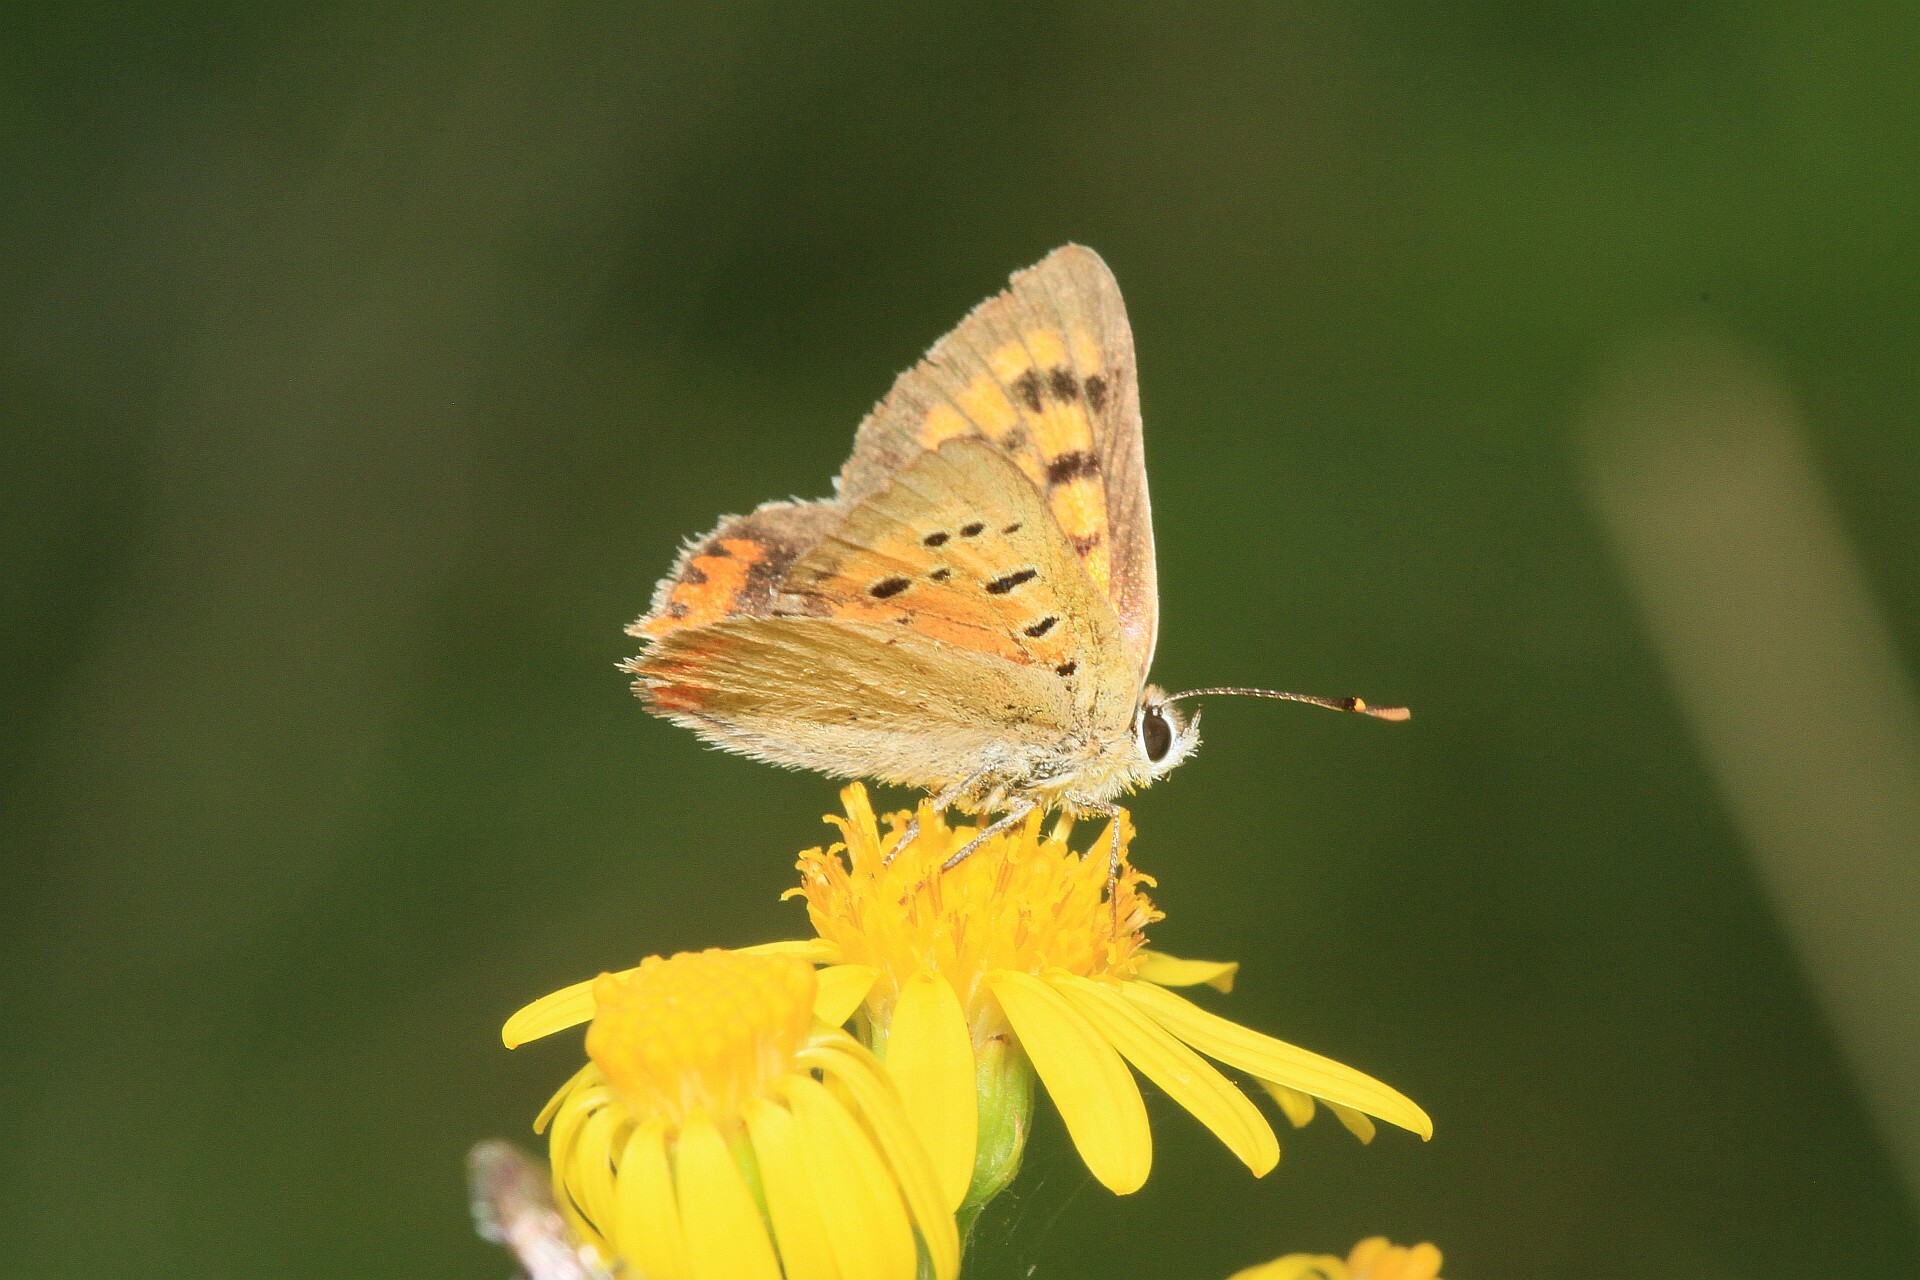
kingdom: Animalia
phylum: Arthropoda
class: Insecta
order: Lepidoptera
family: Lycaenidae
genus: Lycaena
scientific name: Lycaena phlaeas
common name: Small copper
